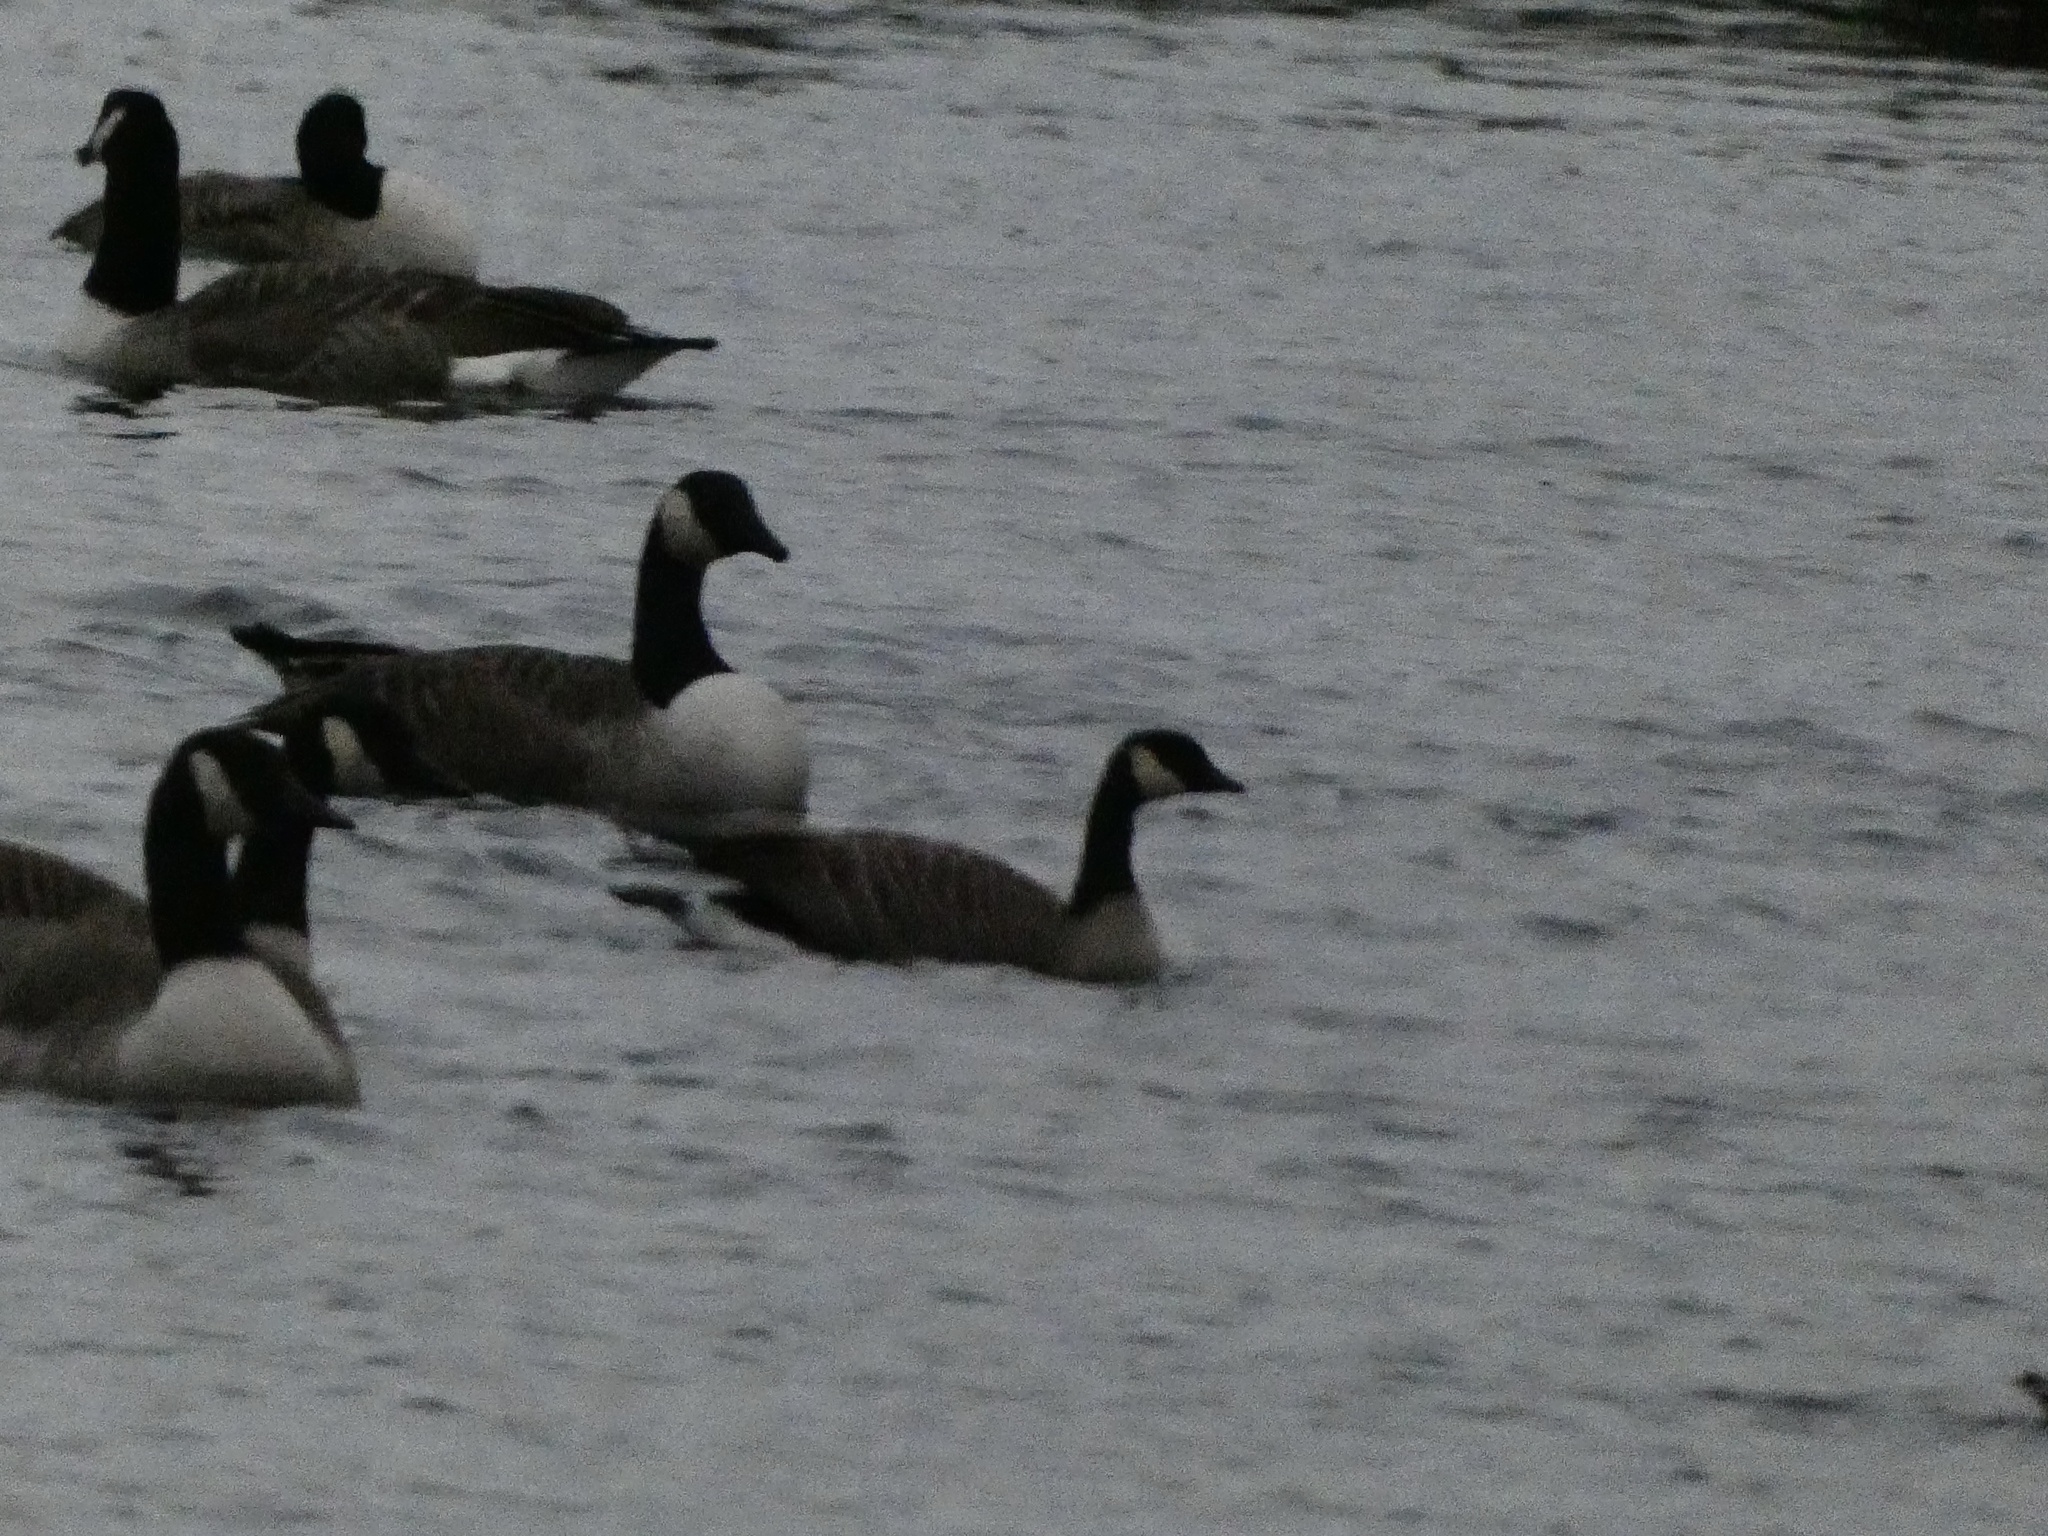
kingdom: Animalia
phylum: Chordata
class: Aves
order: Anseriformes
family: Anatidae
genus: Branta
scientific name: Branta hutchinsii
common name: Cackling goose
